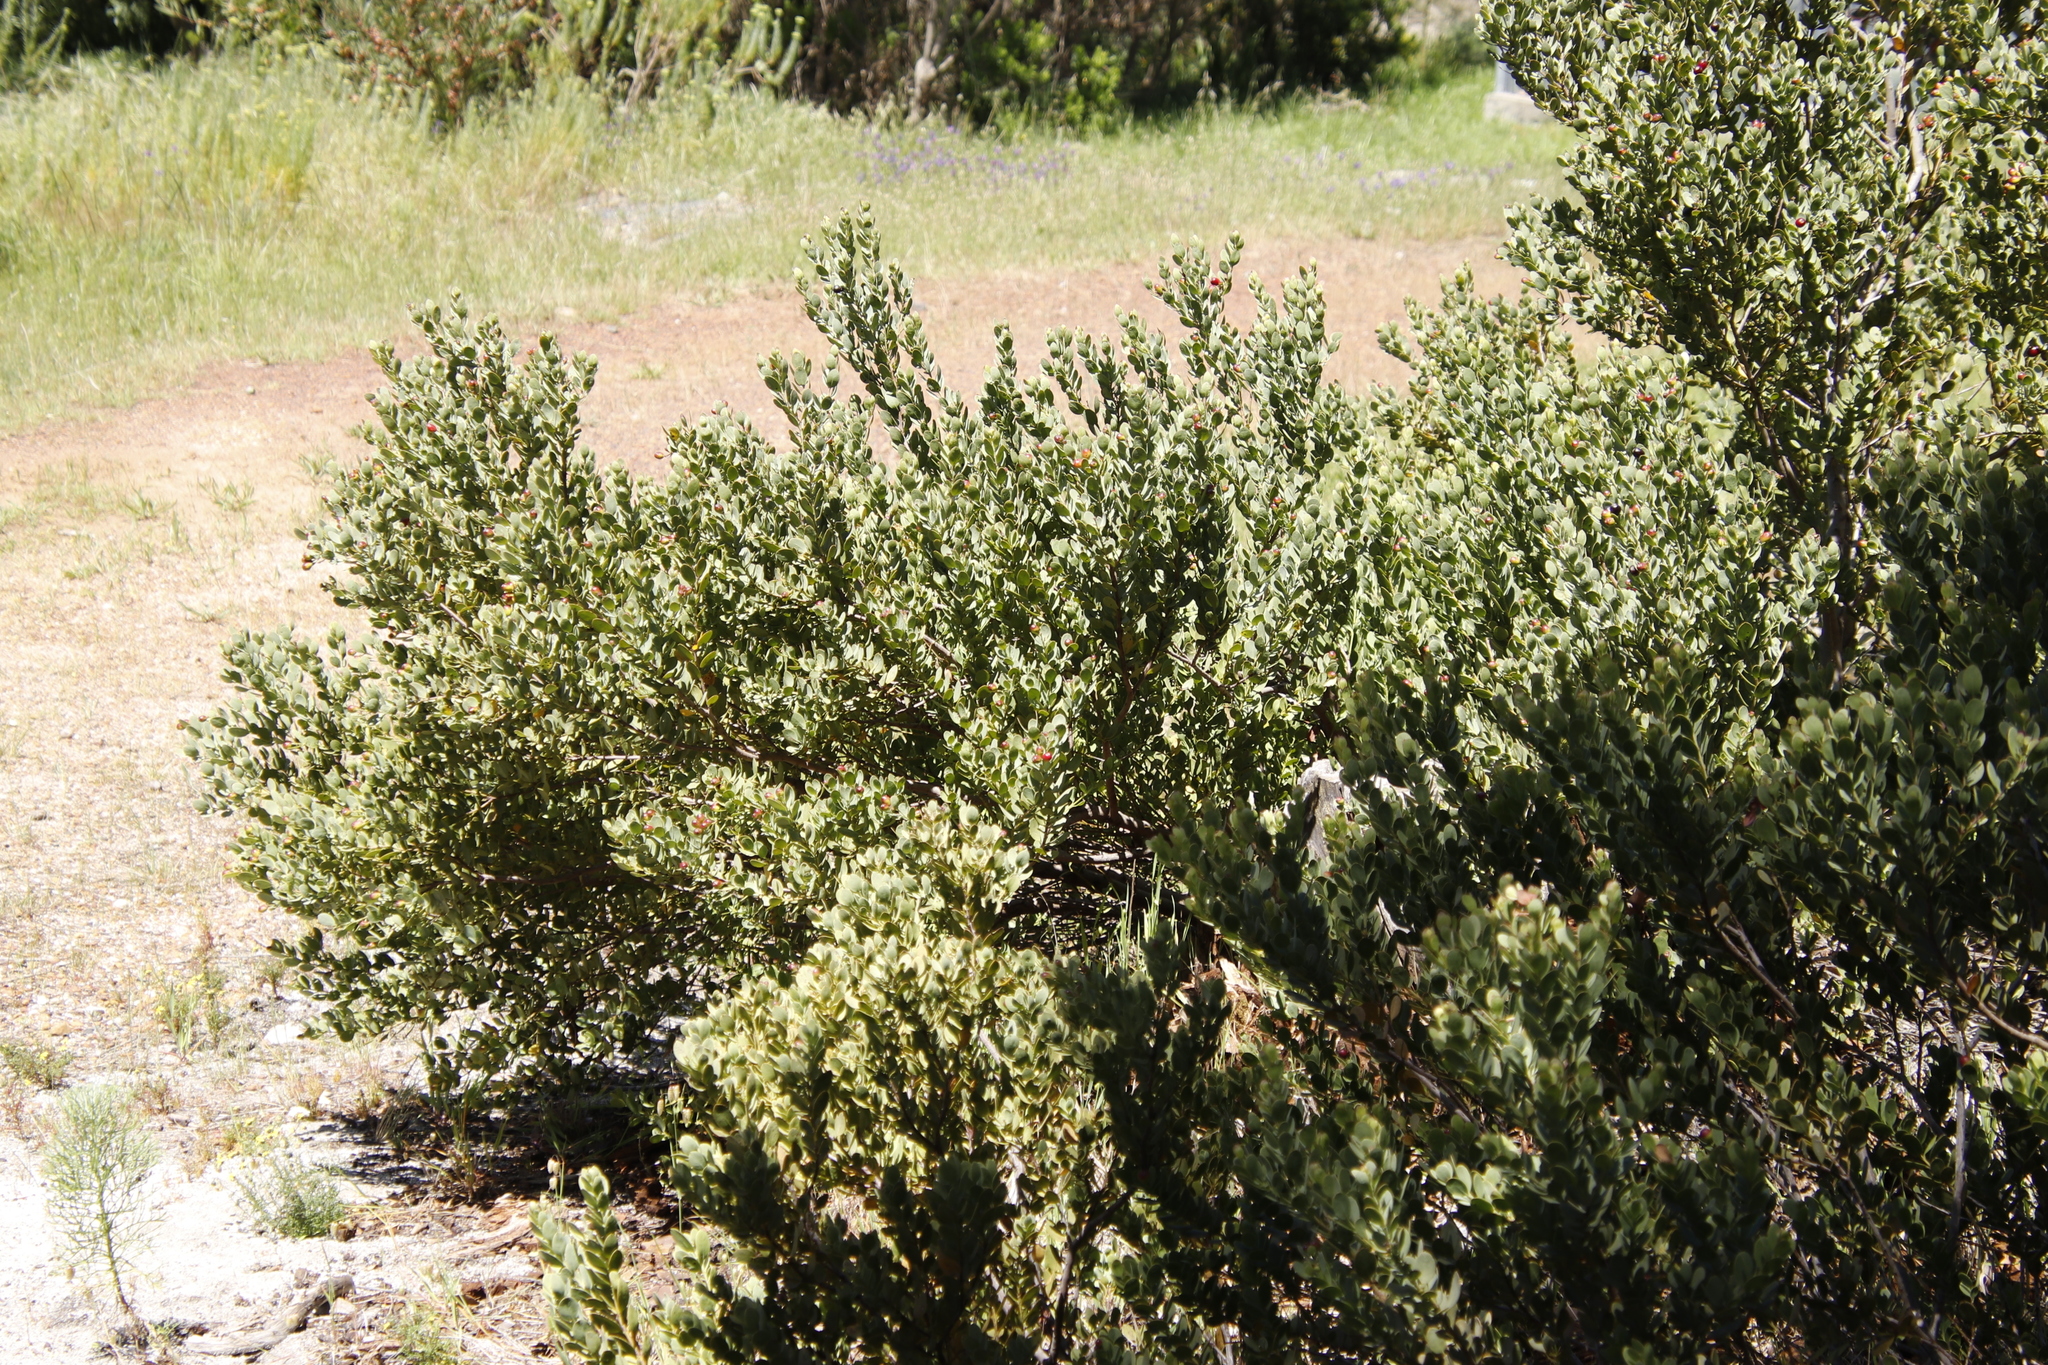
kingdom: Plantae
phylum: Tracheophyta
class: Magnoliopsida
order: Santalales
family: Santalaceae
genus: Osyris
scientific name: Osyris compressa
